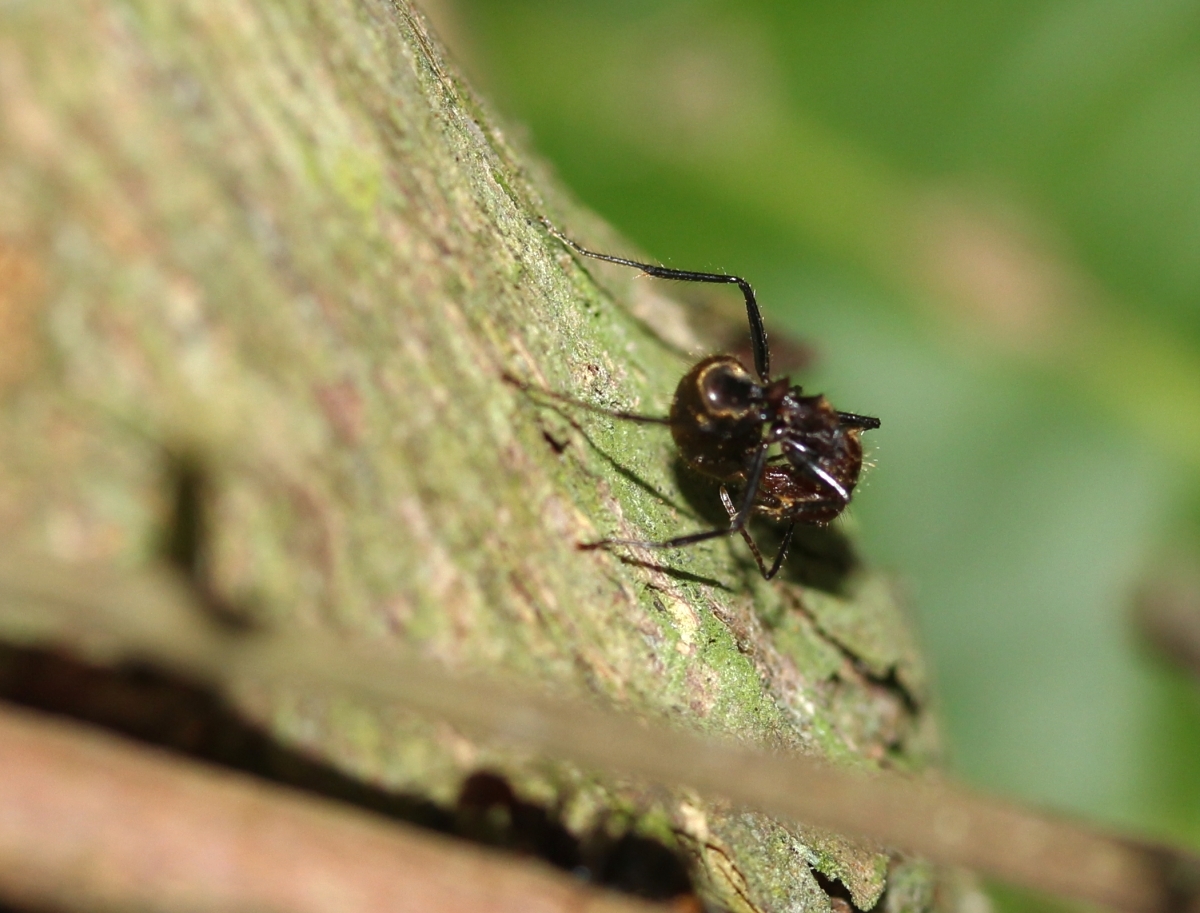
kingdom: Animalia
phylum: Arthropoda
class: Insecta
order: Hymenoptera
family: Formicidae
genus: Dolichoderus
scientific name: Dolichoderus quadridenticulatus
